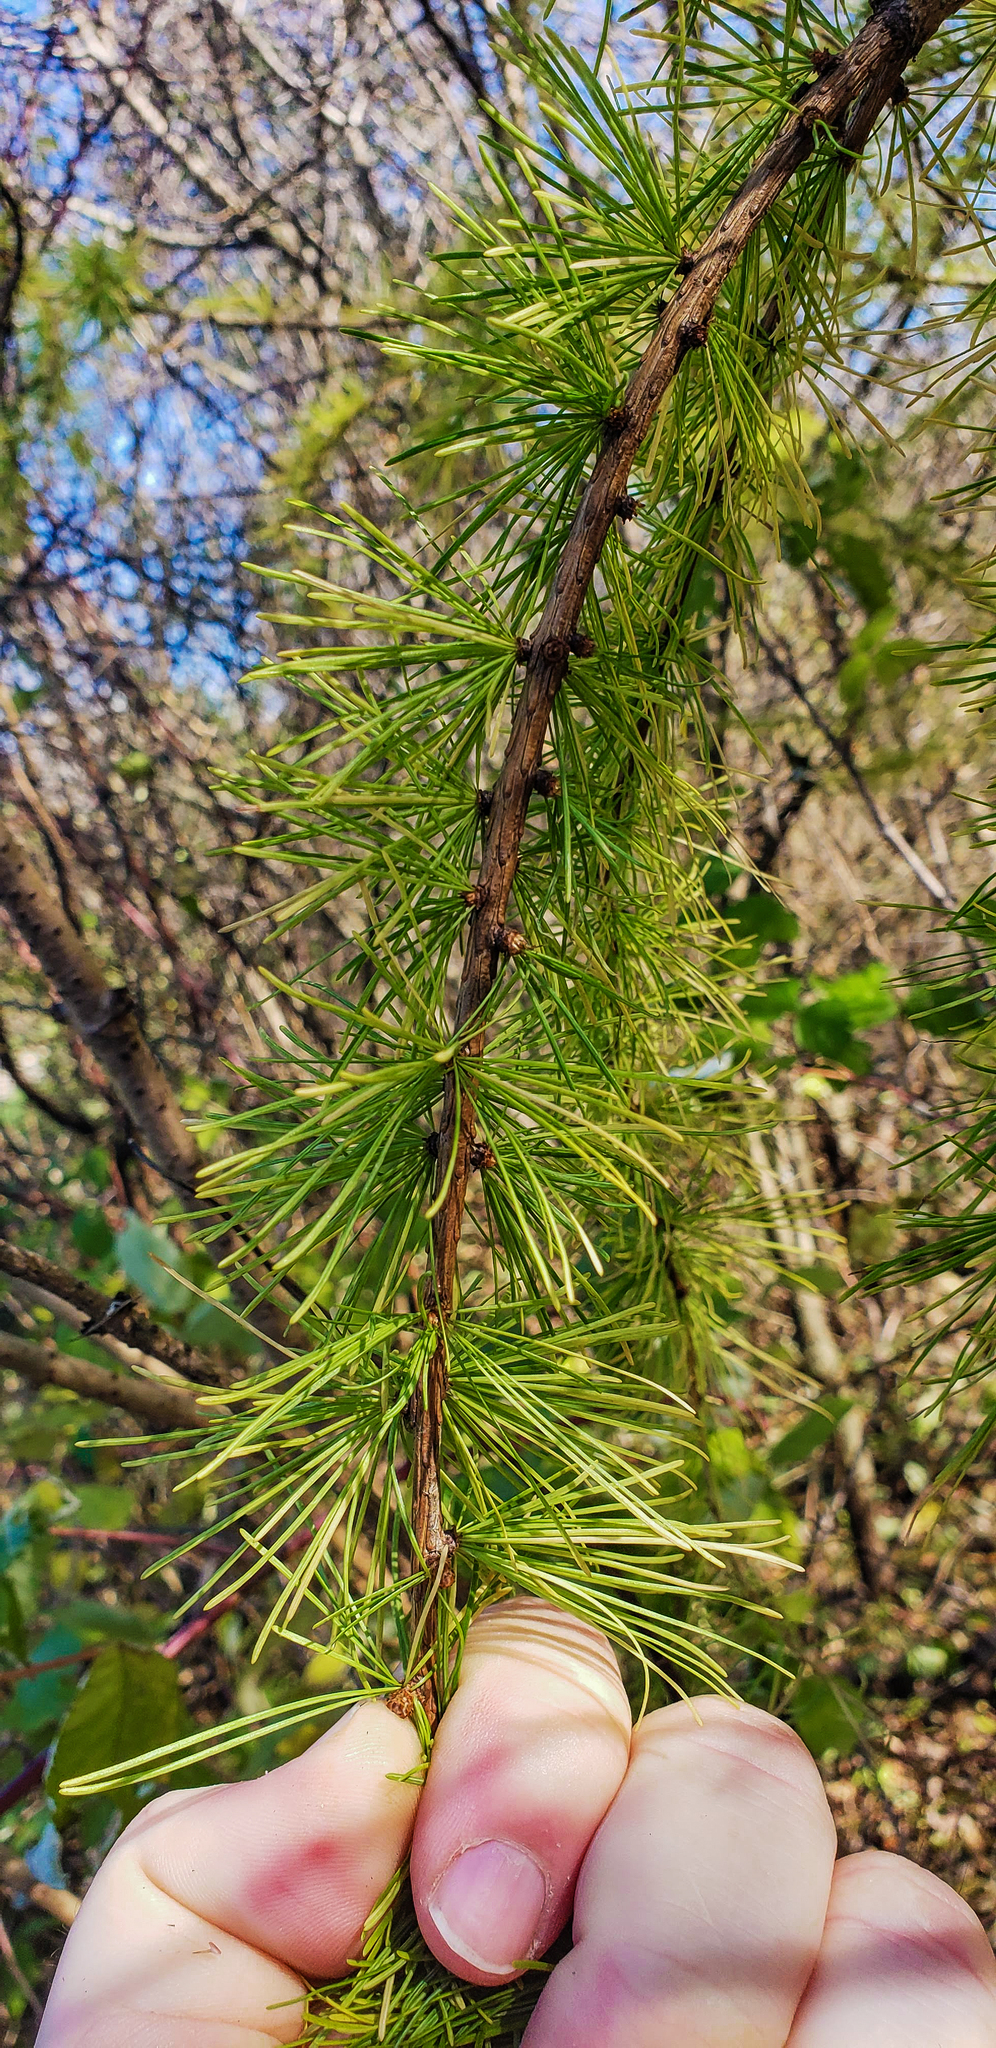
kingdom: Plantae
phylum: Tracheophyta
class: Pinopsida
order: Pinales
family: Pinaceae
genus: Larix
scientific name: Larix laricina
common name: American larch
